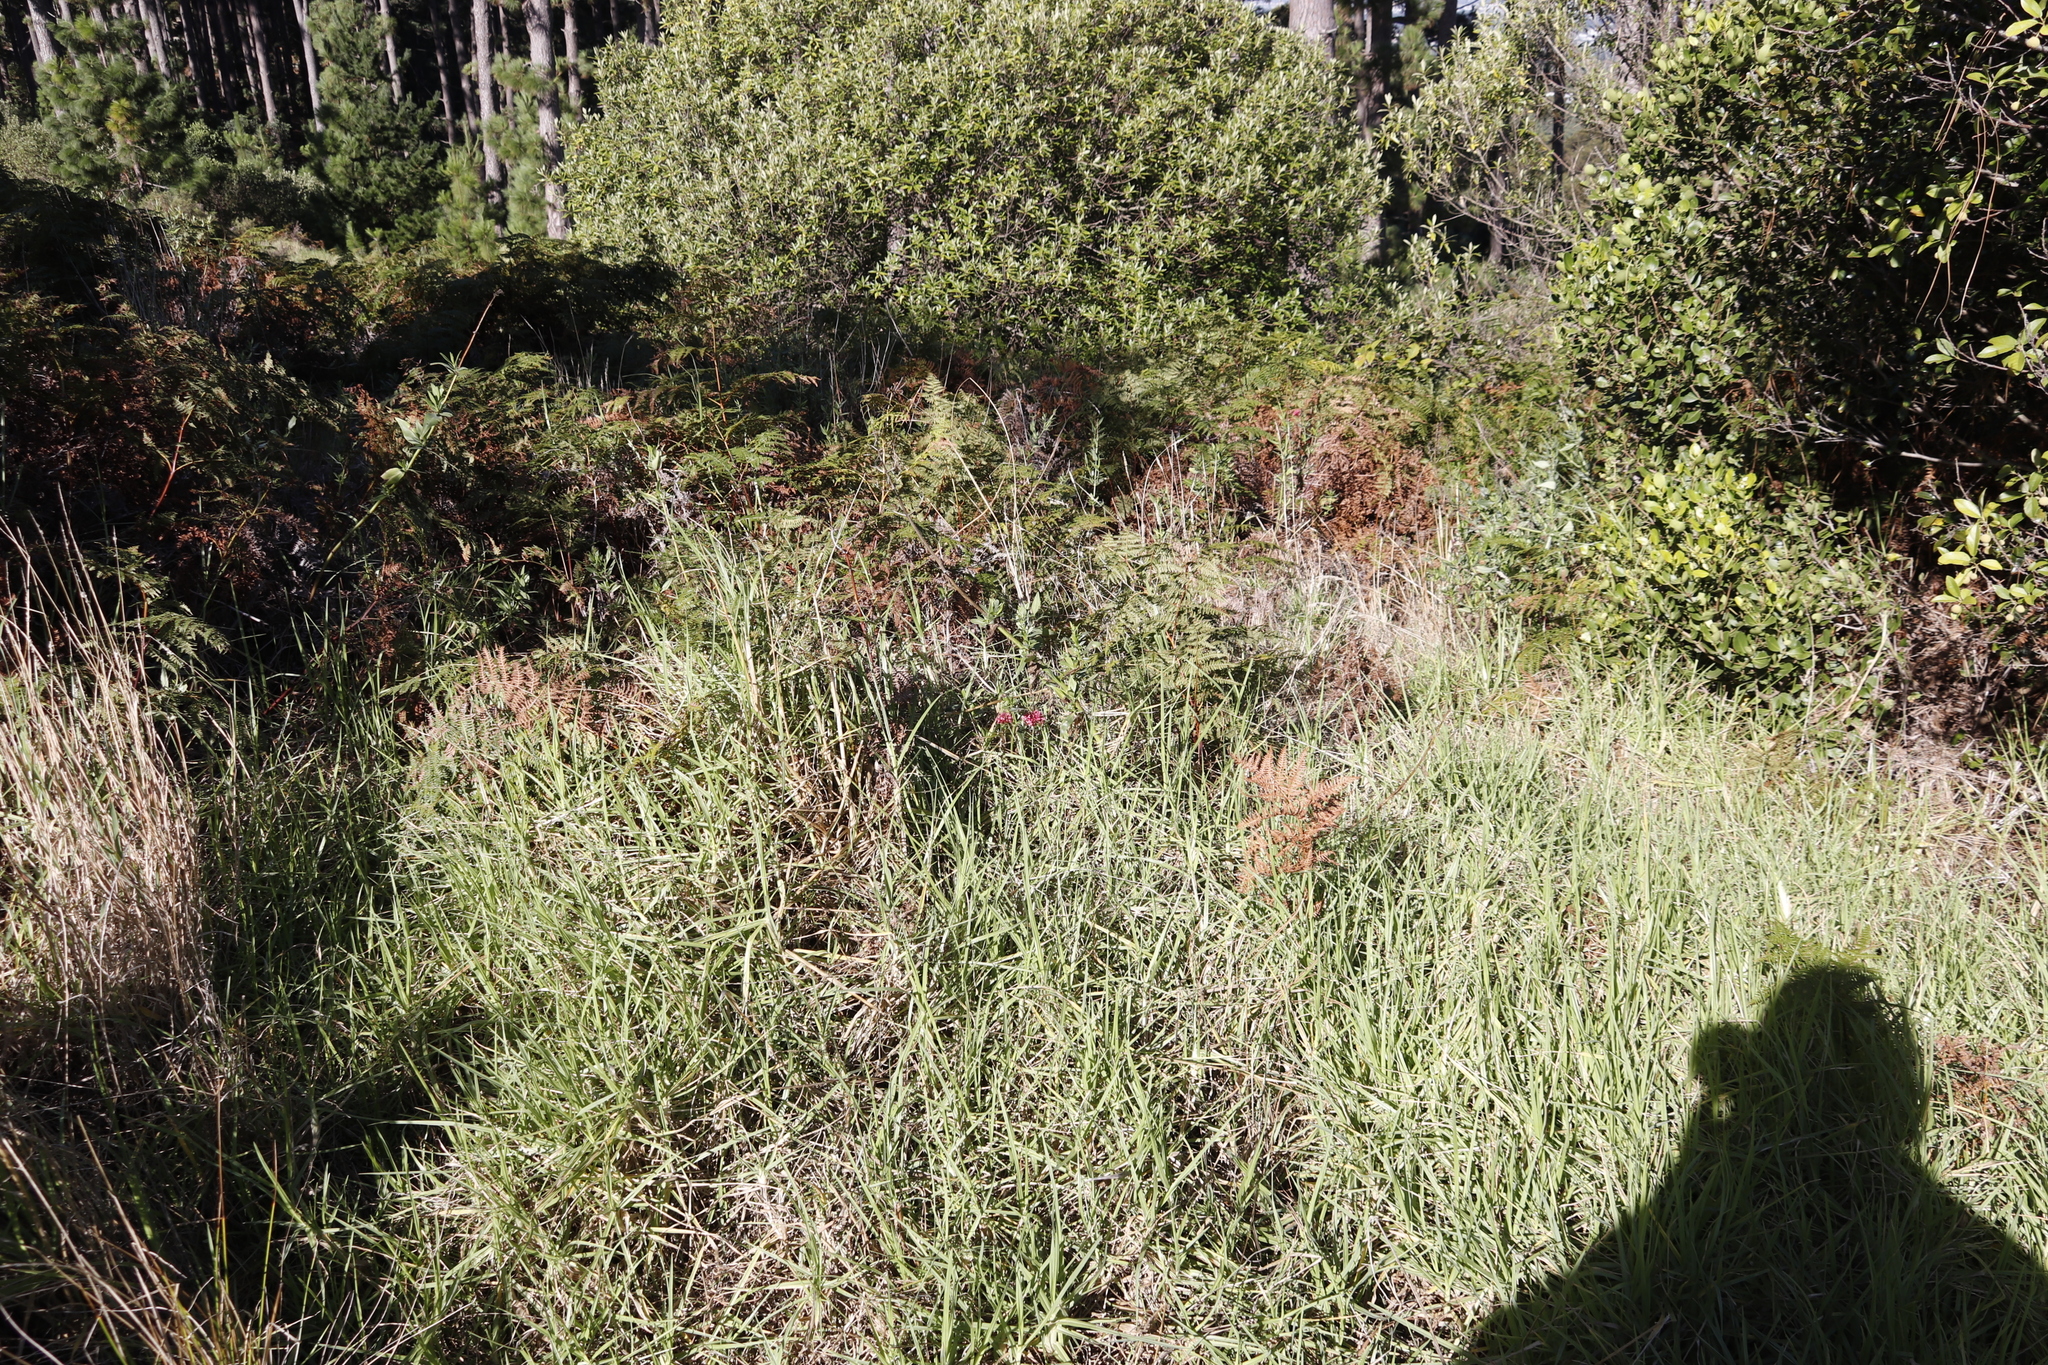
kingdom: Plantae
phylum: Tracheophyta
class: Magnoliopsida
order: Dipsacales
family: Caprifoliaceae
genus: Centranthus
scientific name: Centranthus ruber
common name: Red valerian
